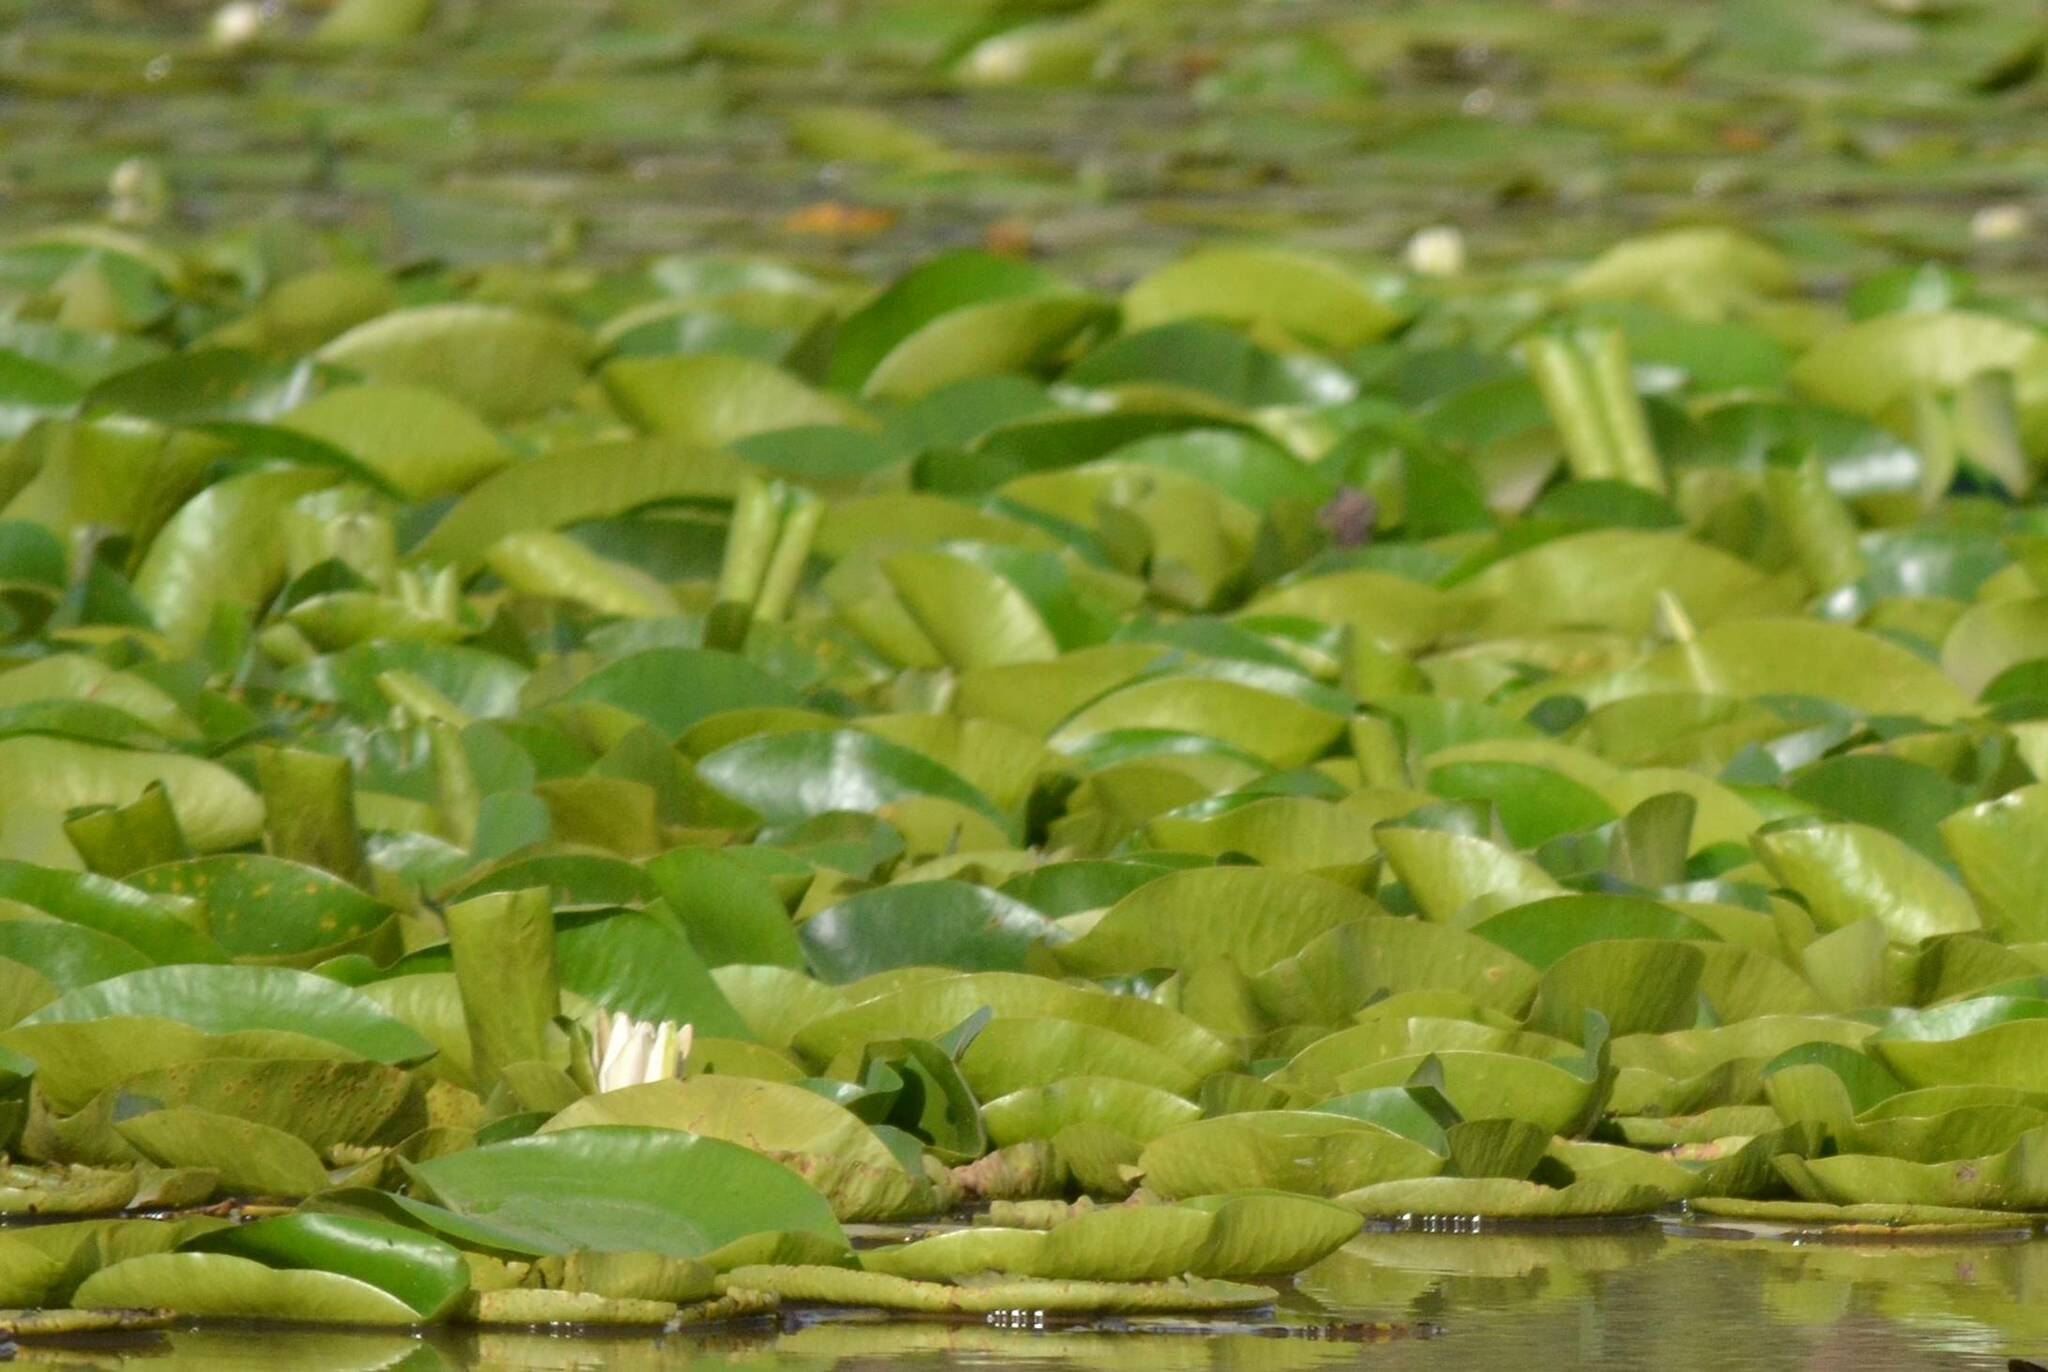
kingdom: Plantae
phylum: Tracheophyta
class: Magnoliopsida
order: Nymphaeales
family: Nymphaeaceae
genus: Nymphaea
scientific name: Nymphaea alba
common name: White water-lily
